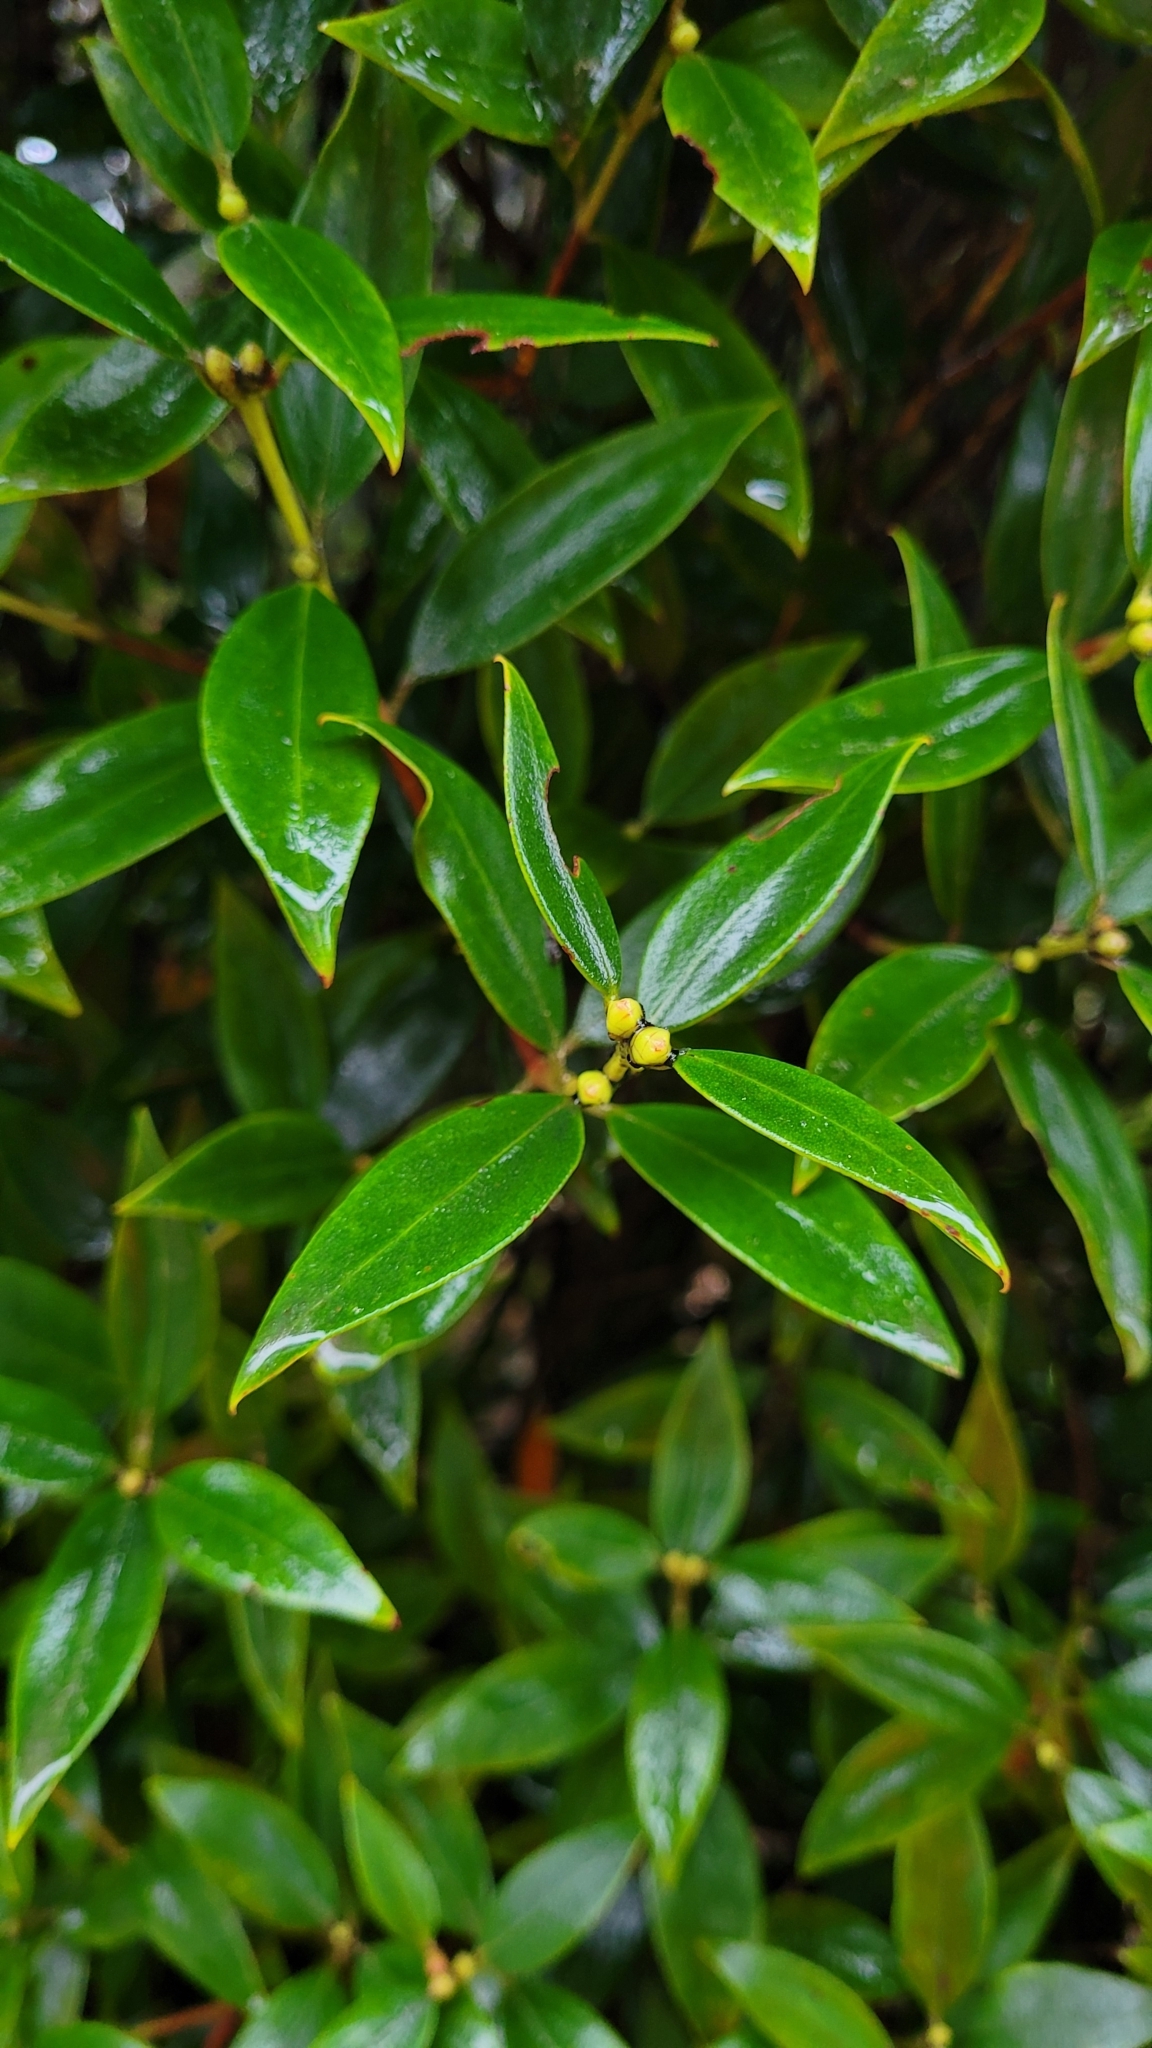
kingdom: Plantae
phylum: Tracheophyta
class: Magnoliopsida
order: Myrtales
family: Myrtaceae
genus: Metrosideros
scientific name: Metrosideros umbellata
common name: Southern rata
